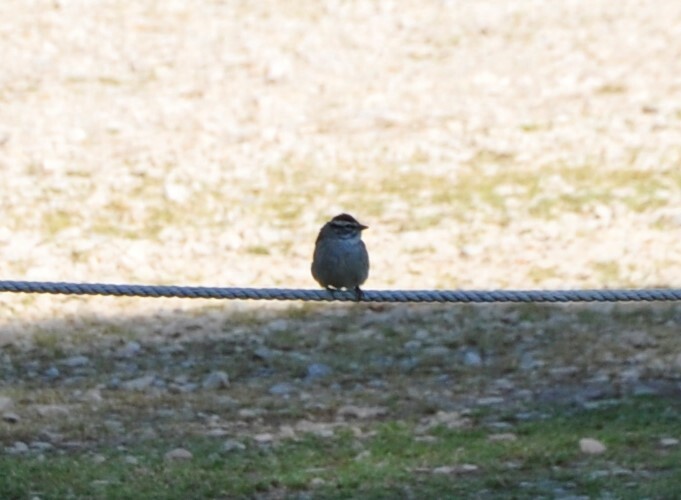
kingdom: Animalia
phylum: Chordata
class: Aves
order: Passeriformes
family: Passerellidae
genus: Spizella
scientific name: Spizella passerina
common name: Chipping sparrow
